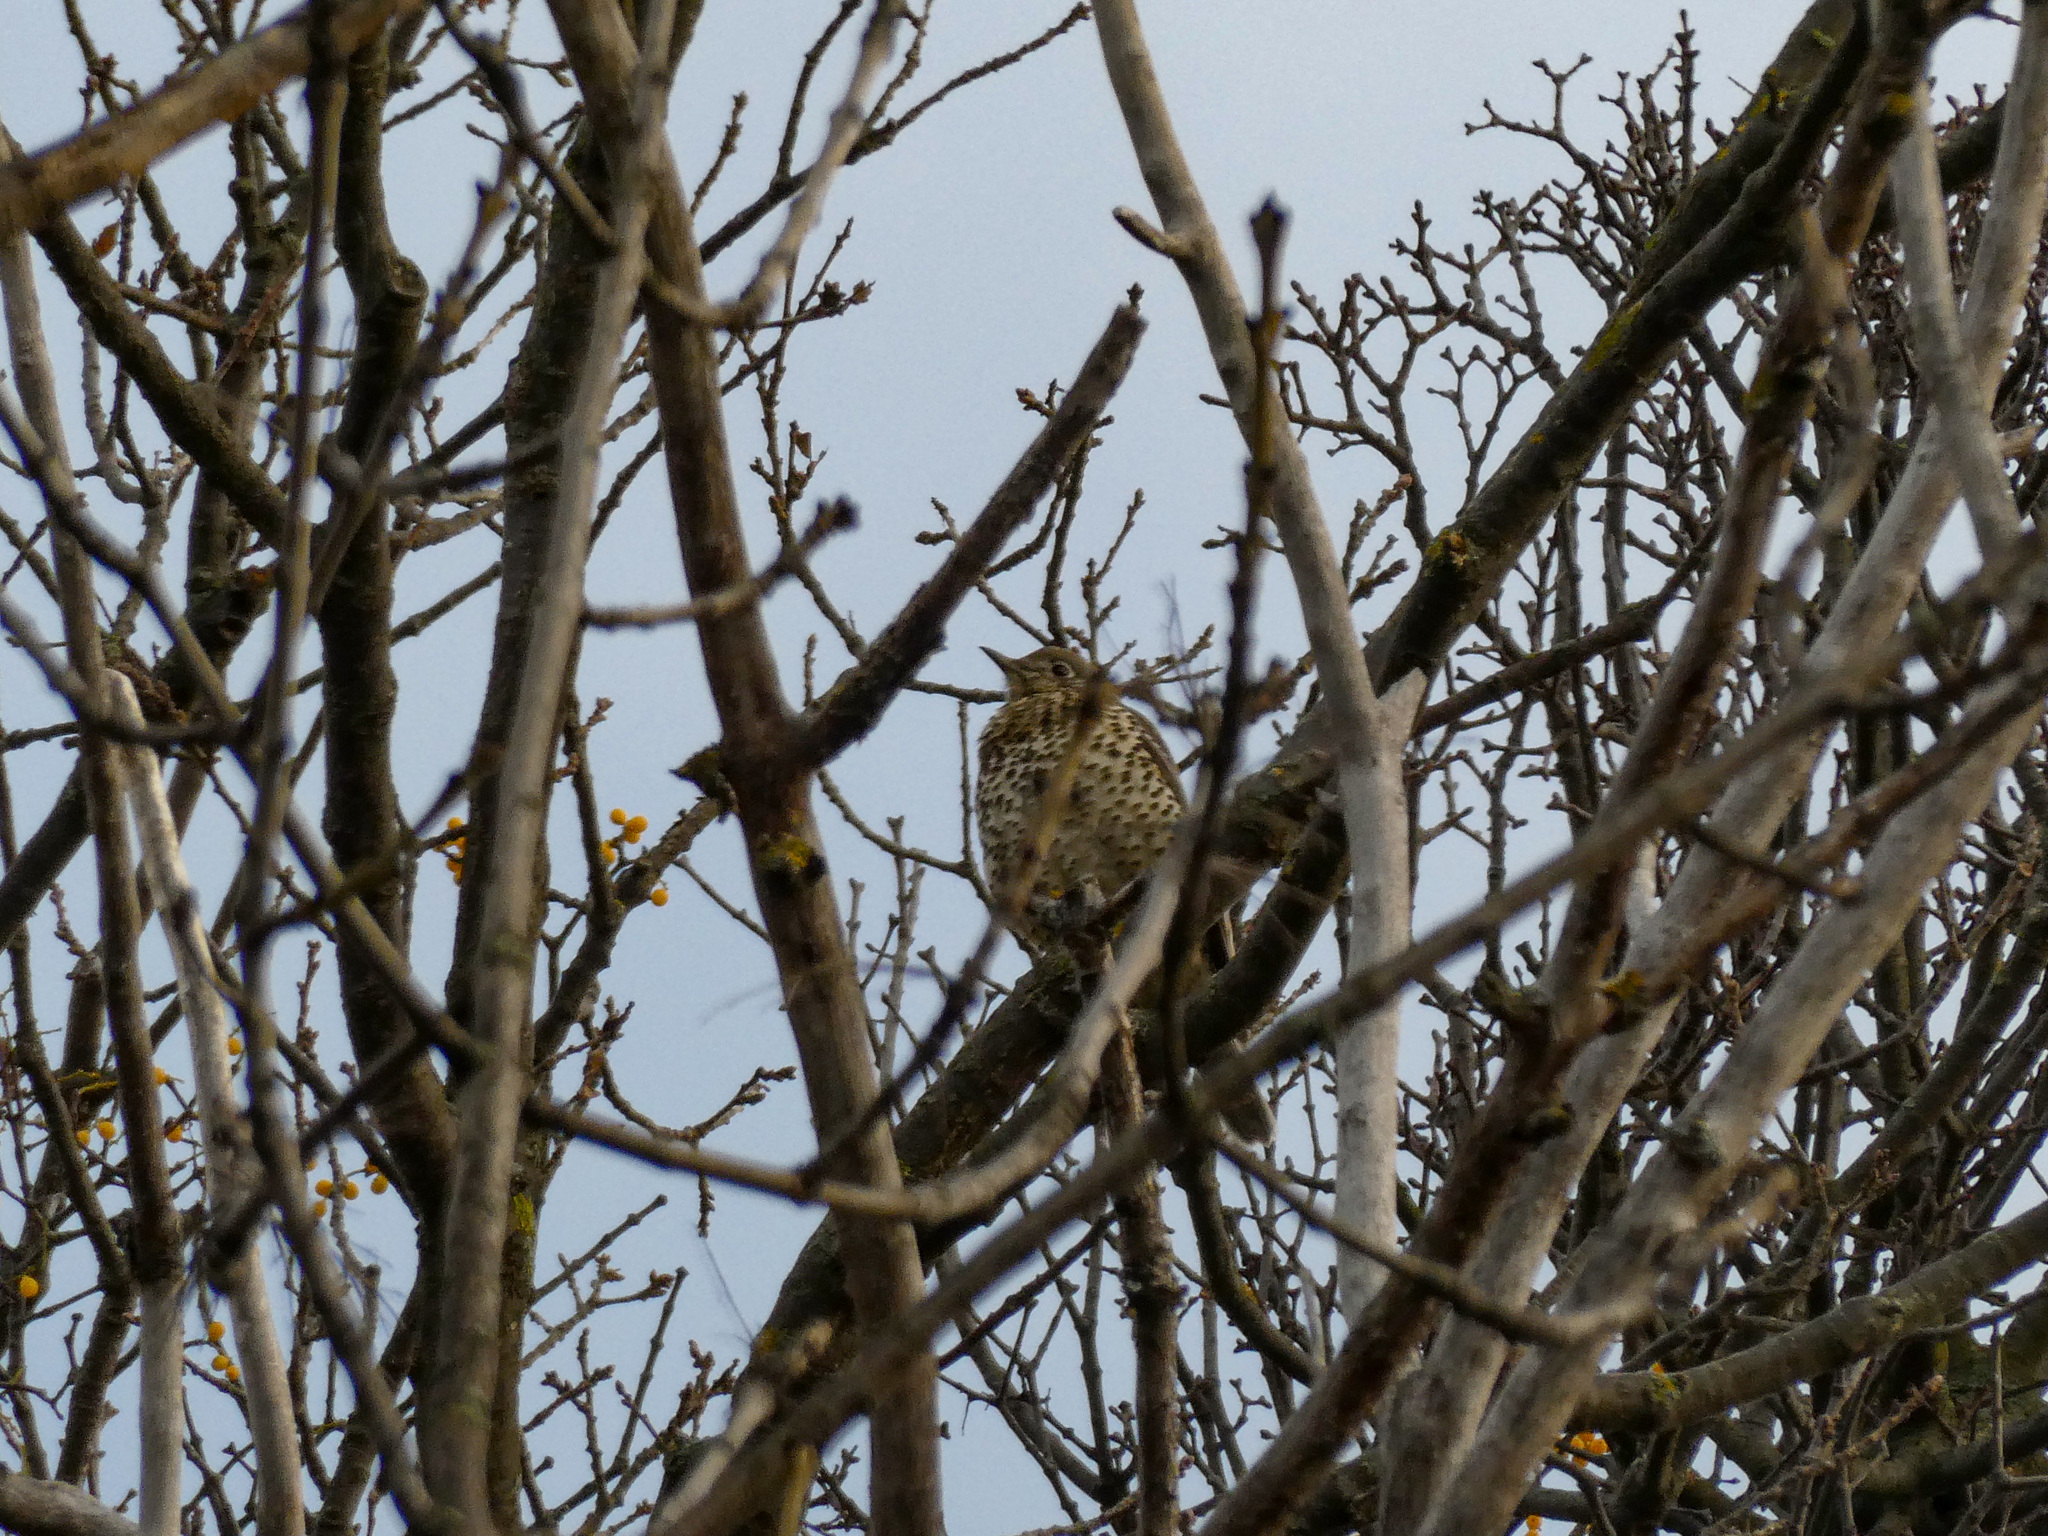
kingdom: Animalia
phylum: Chordata
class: Aves
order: Passeriformes
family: Turdidae
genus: Turdus
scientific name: Turdus viscivorus
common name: Mistle thrush
